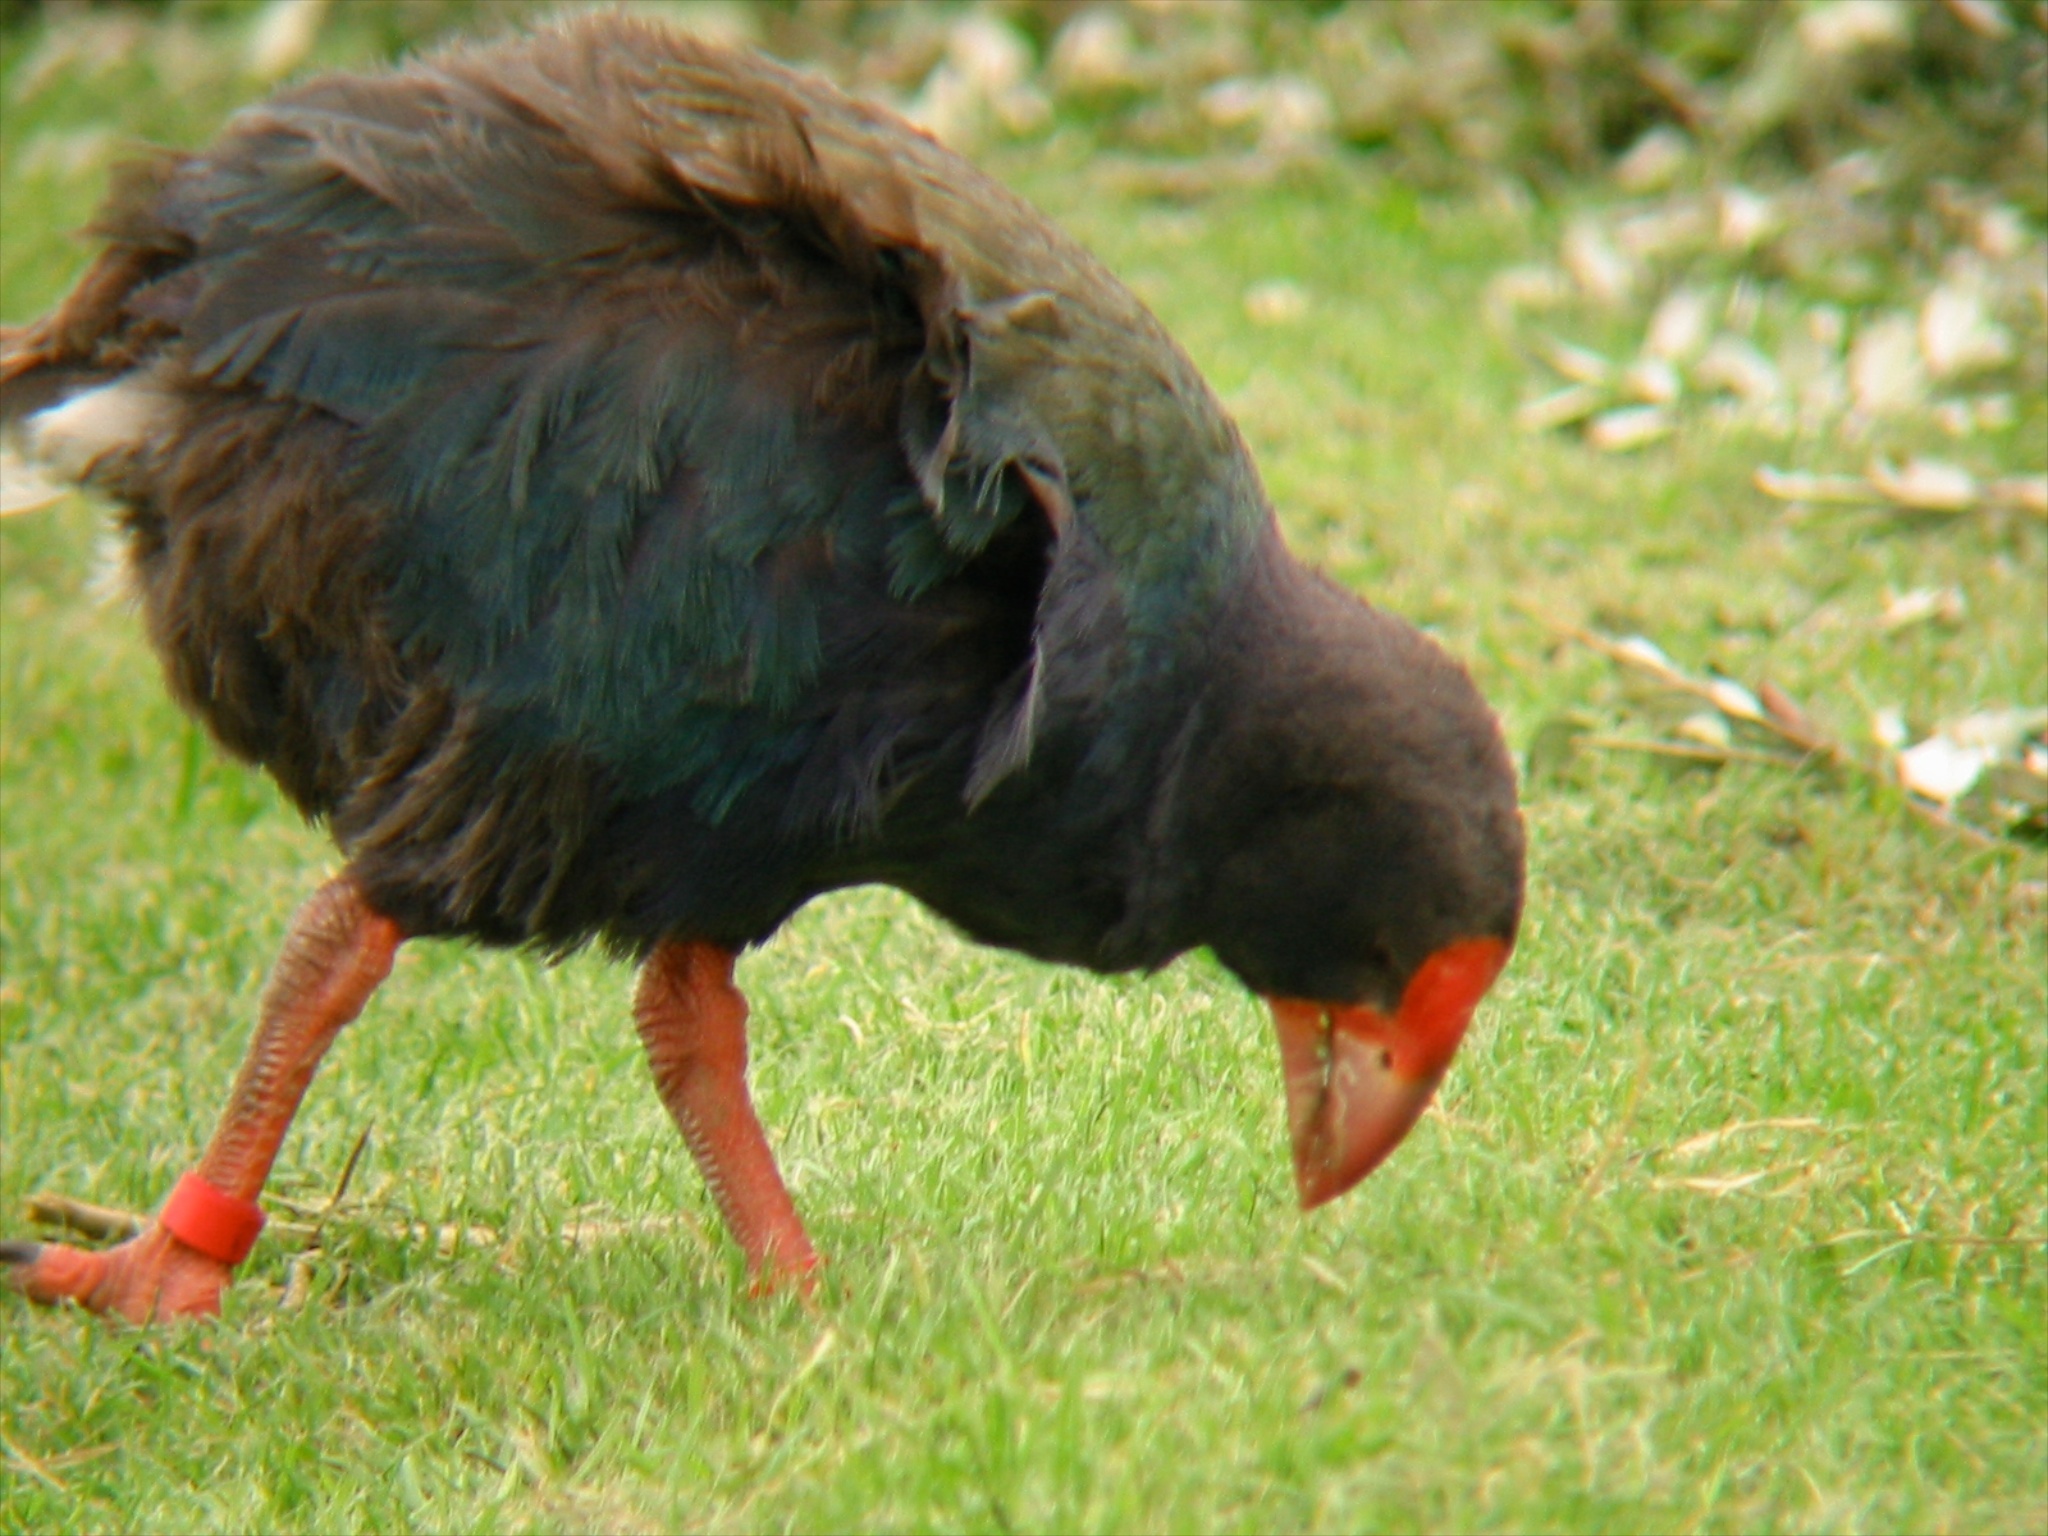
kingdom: Animalia
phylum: Chordata
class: Aves
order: Gruiformes
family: Rallidae
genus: Porphyrio
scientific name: Porphyrio hochstetteri
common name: South island takahe
